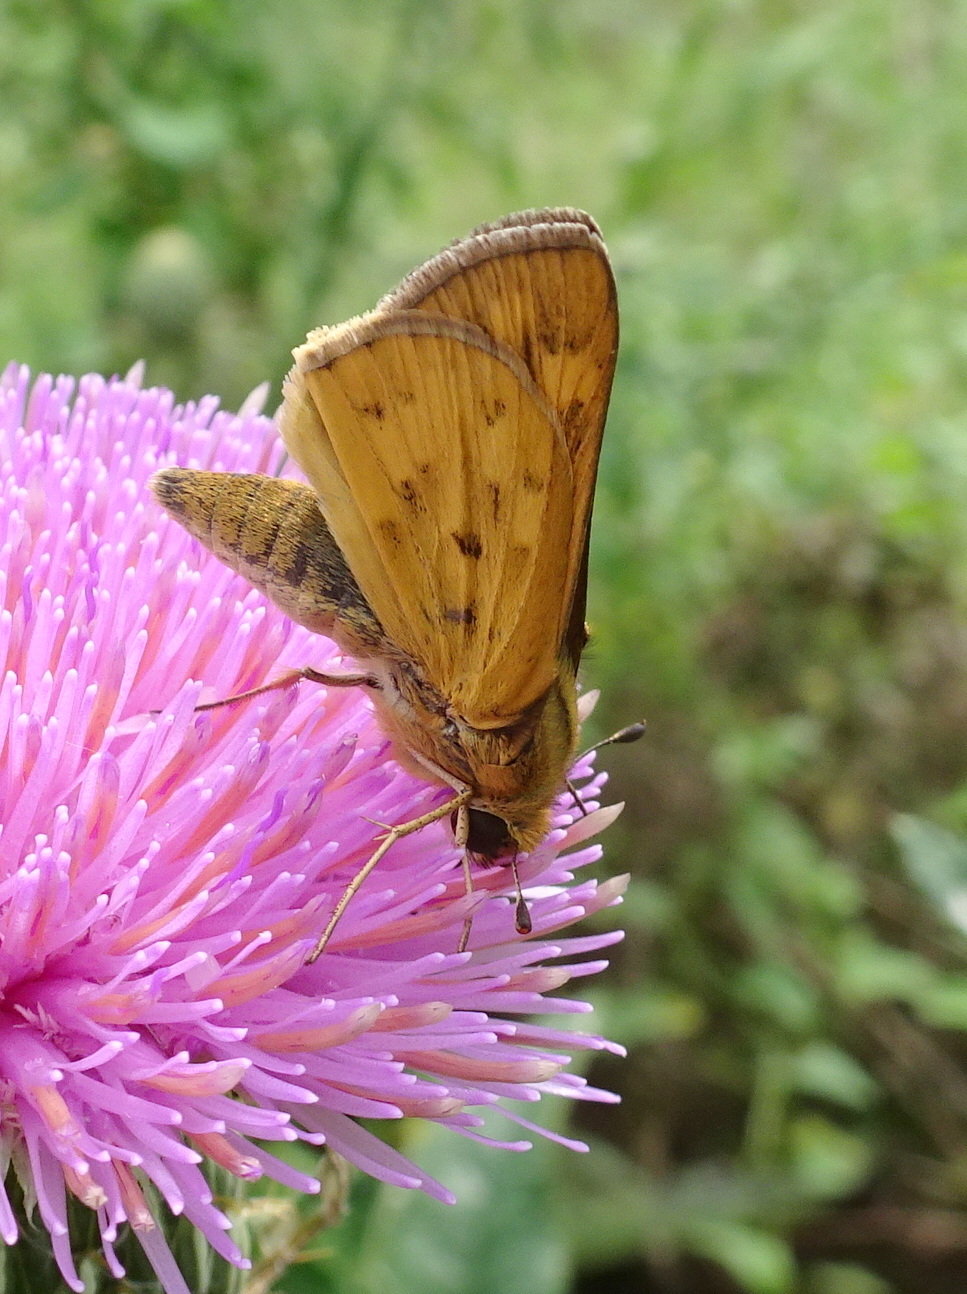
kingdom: Animalia
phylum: Arthropoda
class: Insecta
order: Lepidoptera
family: Hesperiidae
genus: Hylephila
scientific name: Hylephila phyleus
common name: Fiery skipper
